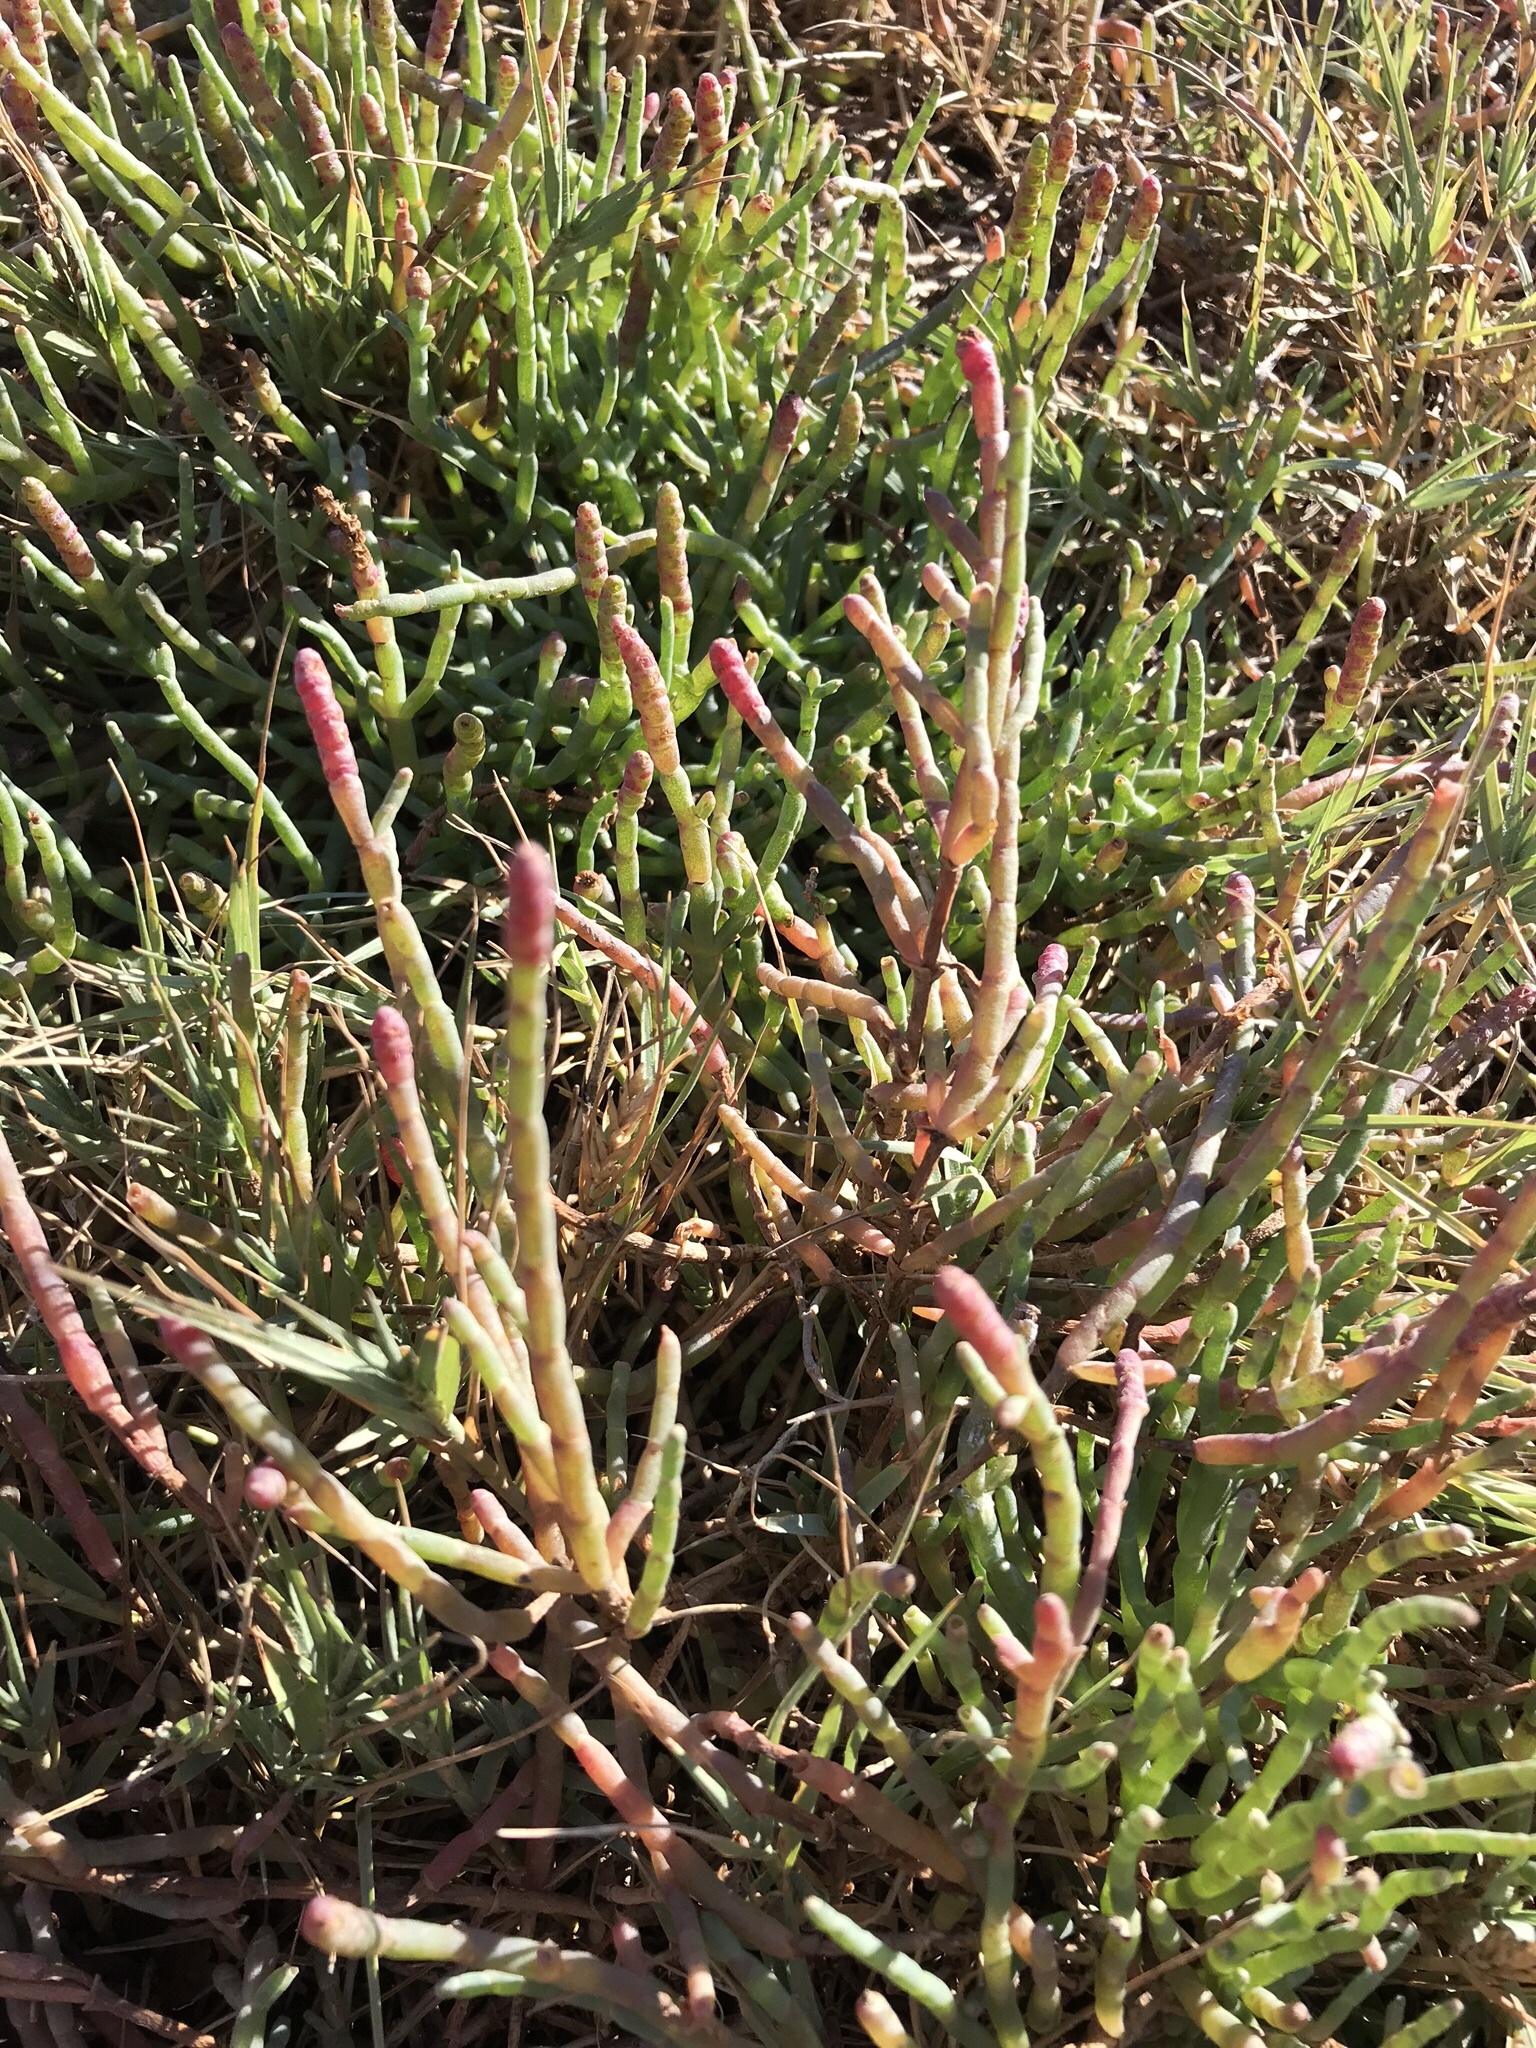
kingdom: Plantae
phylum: Tracheophyta
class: Magnoliopsida
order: Caryophyllales
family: Amaranthaceae
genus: Salicornia
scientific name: Salicornia pacifica
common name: Pacific glasswort
